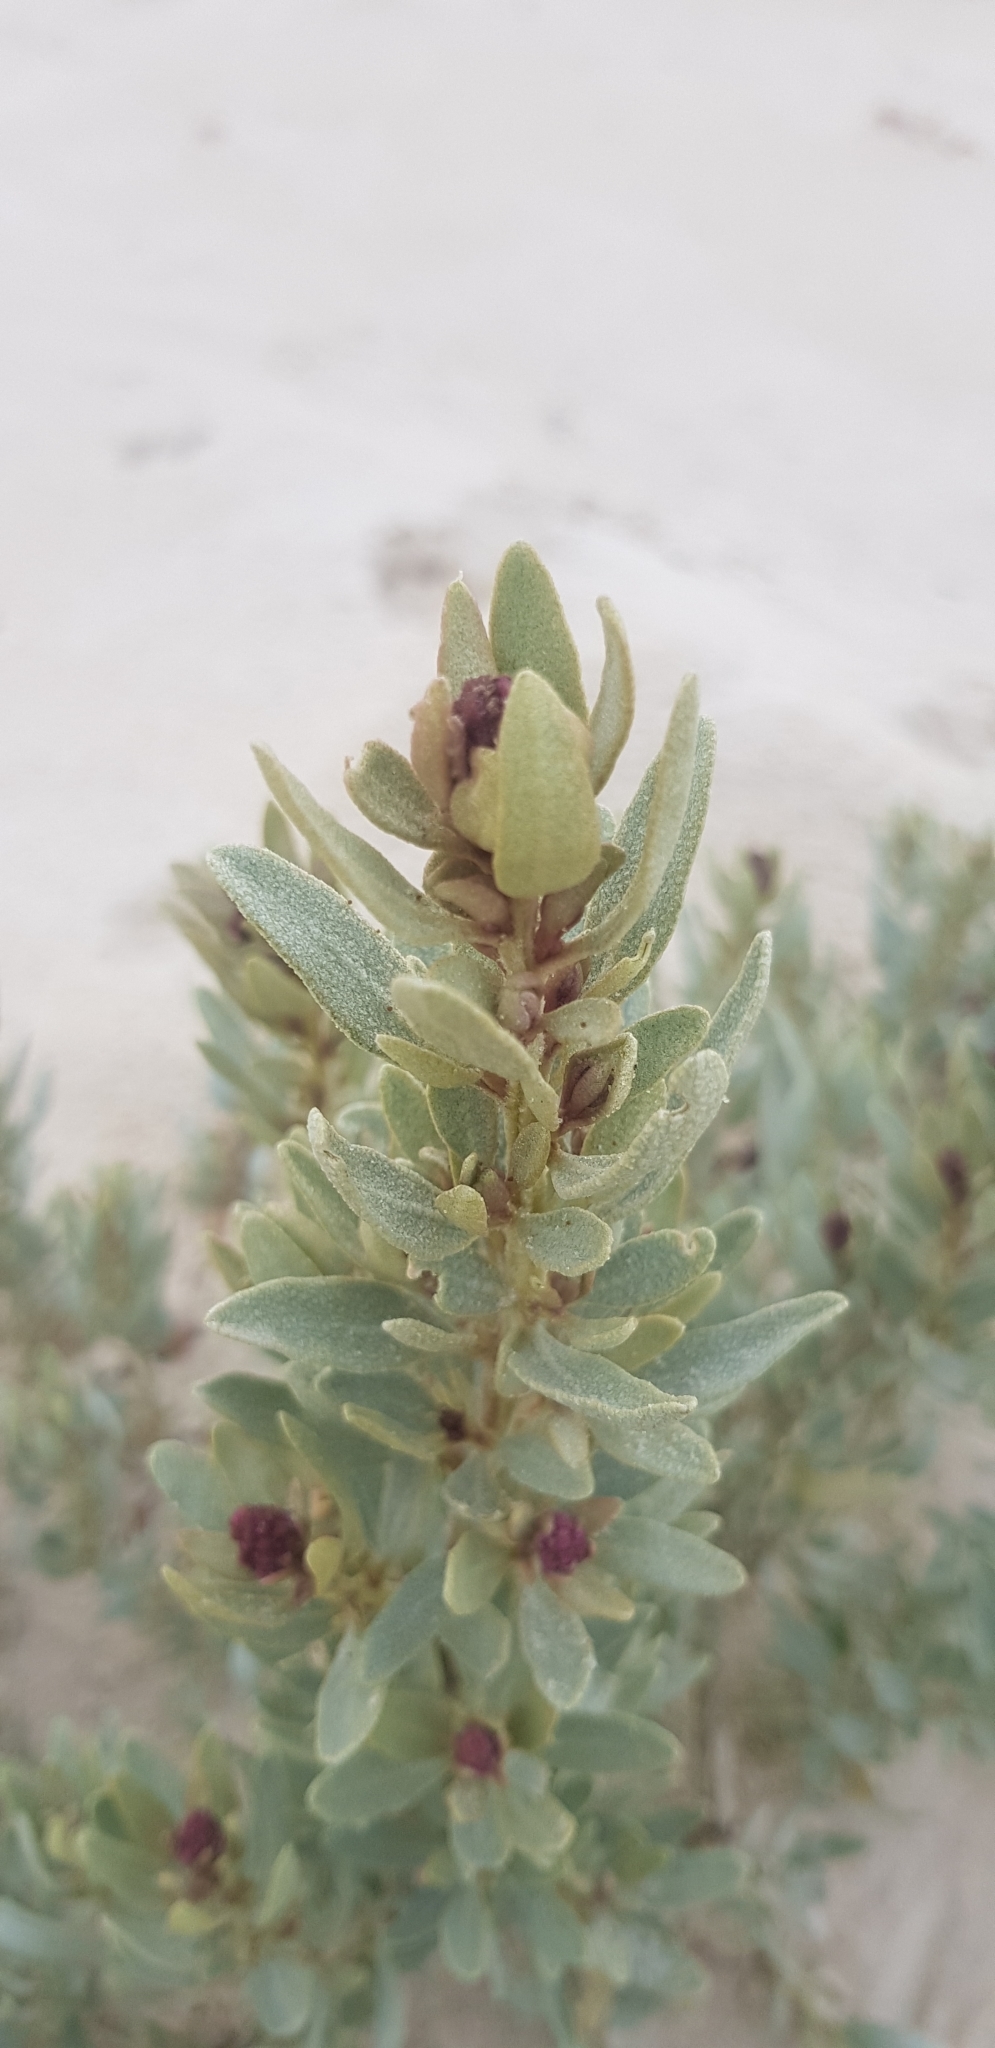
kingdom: Plantae
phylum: Tracheophyta
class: Magnoliopsida
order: Caryophyllales
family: Amaranthaceae
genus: Atriplex
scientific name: Atriplex cinerea
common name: Grey saltbush
